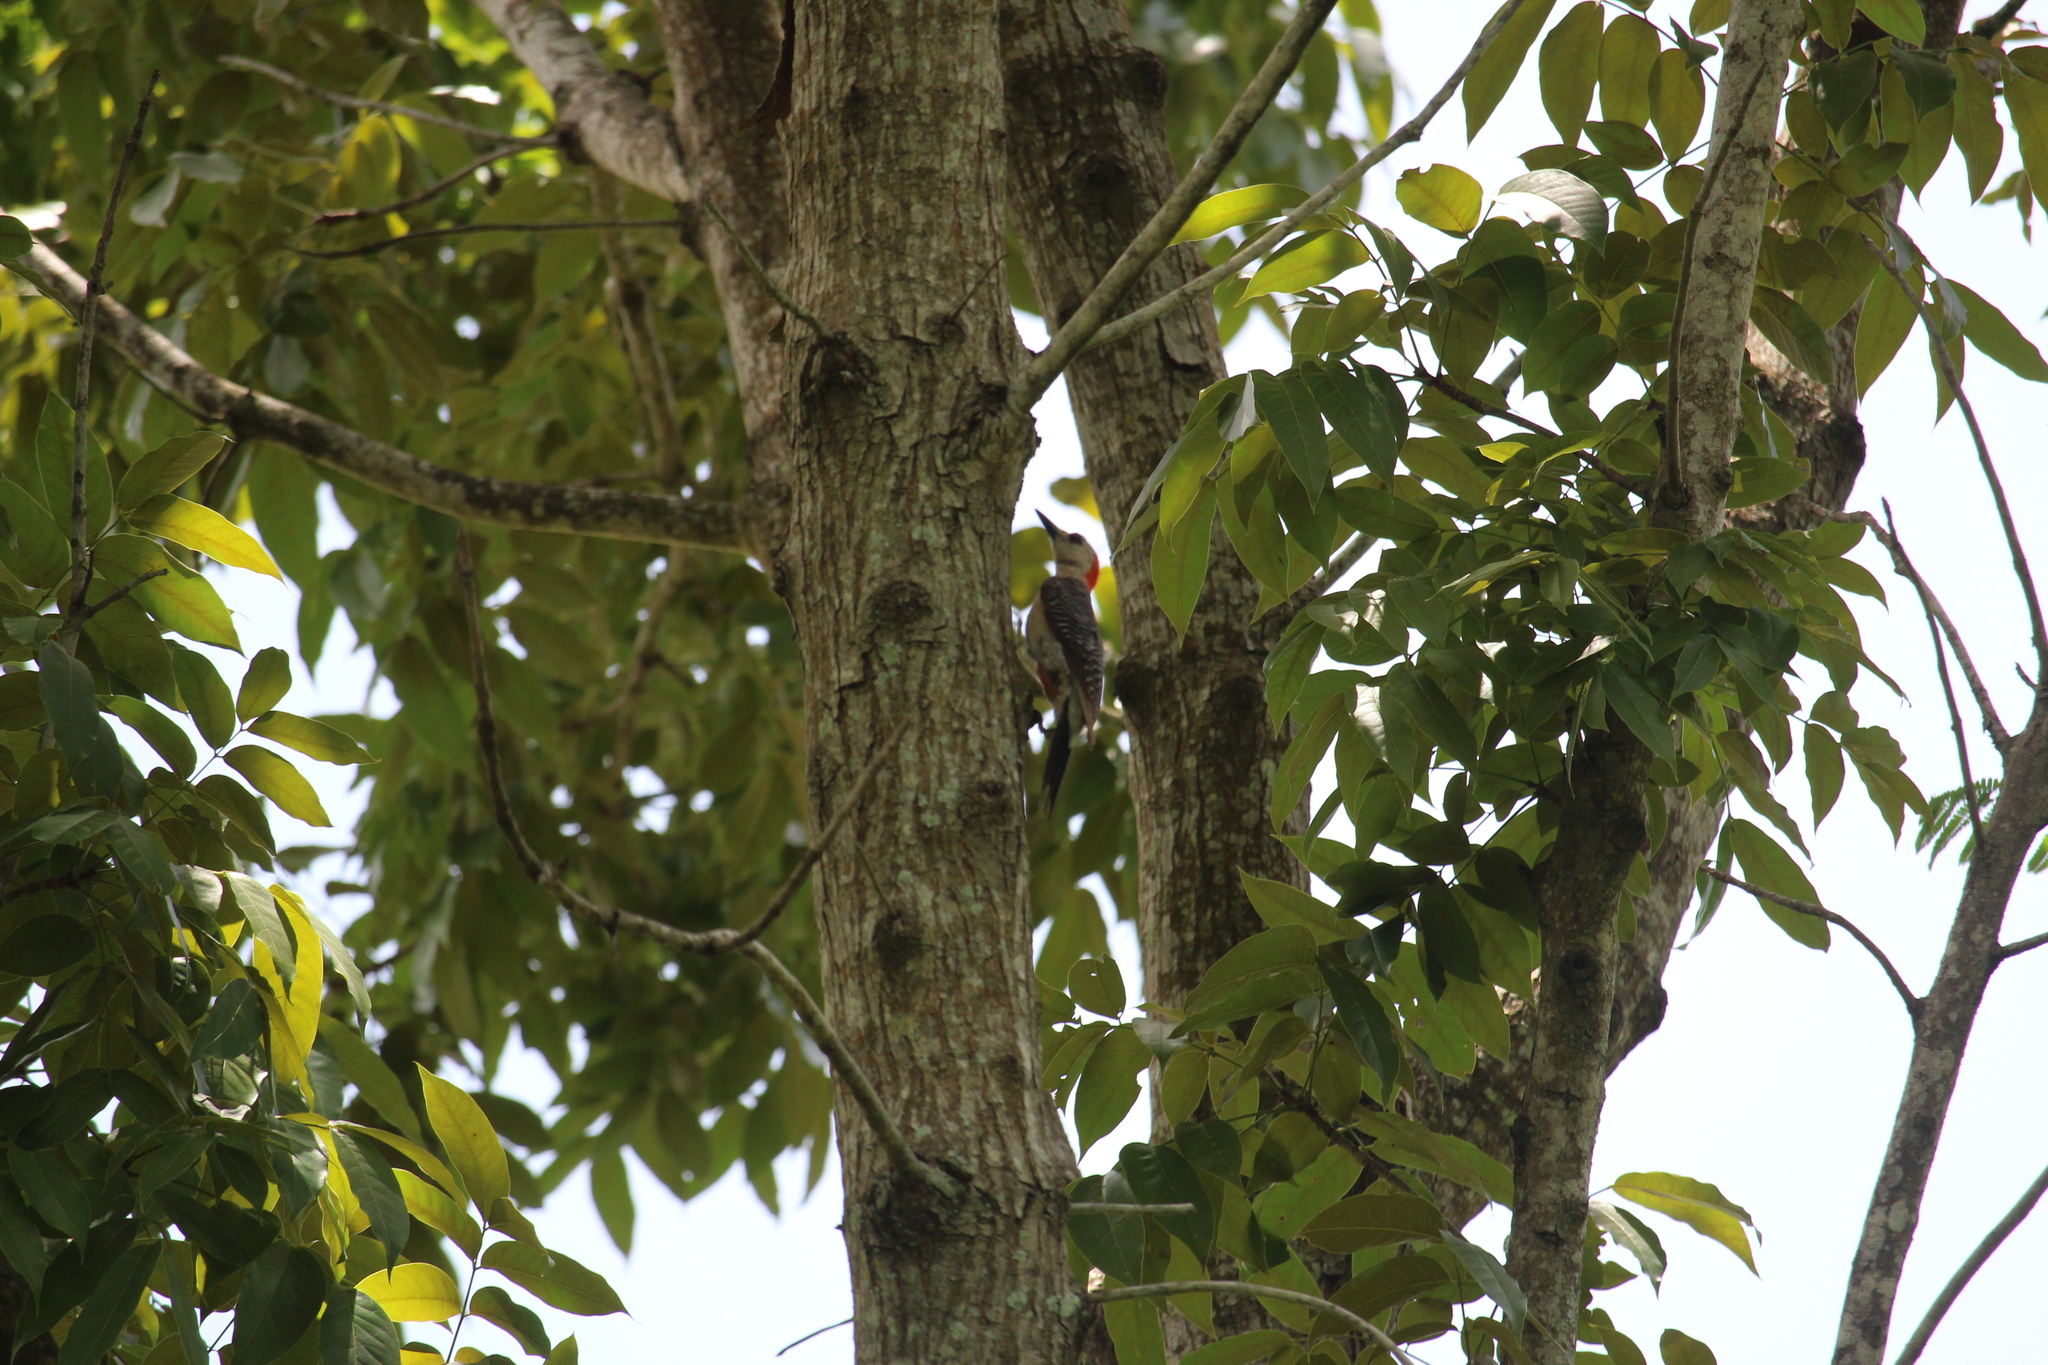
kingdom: Animalia
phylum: Chordata
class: Aves
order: Piciformes
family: Picidae
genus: Melanerpes
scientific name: Melanerpes aurifrons
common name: Golden-fronted woodpecker
